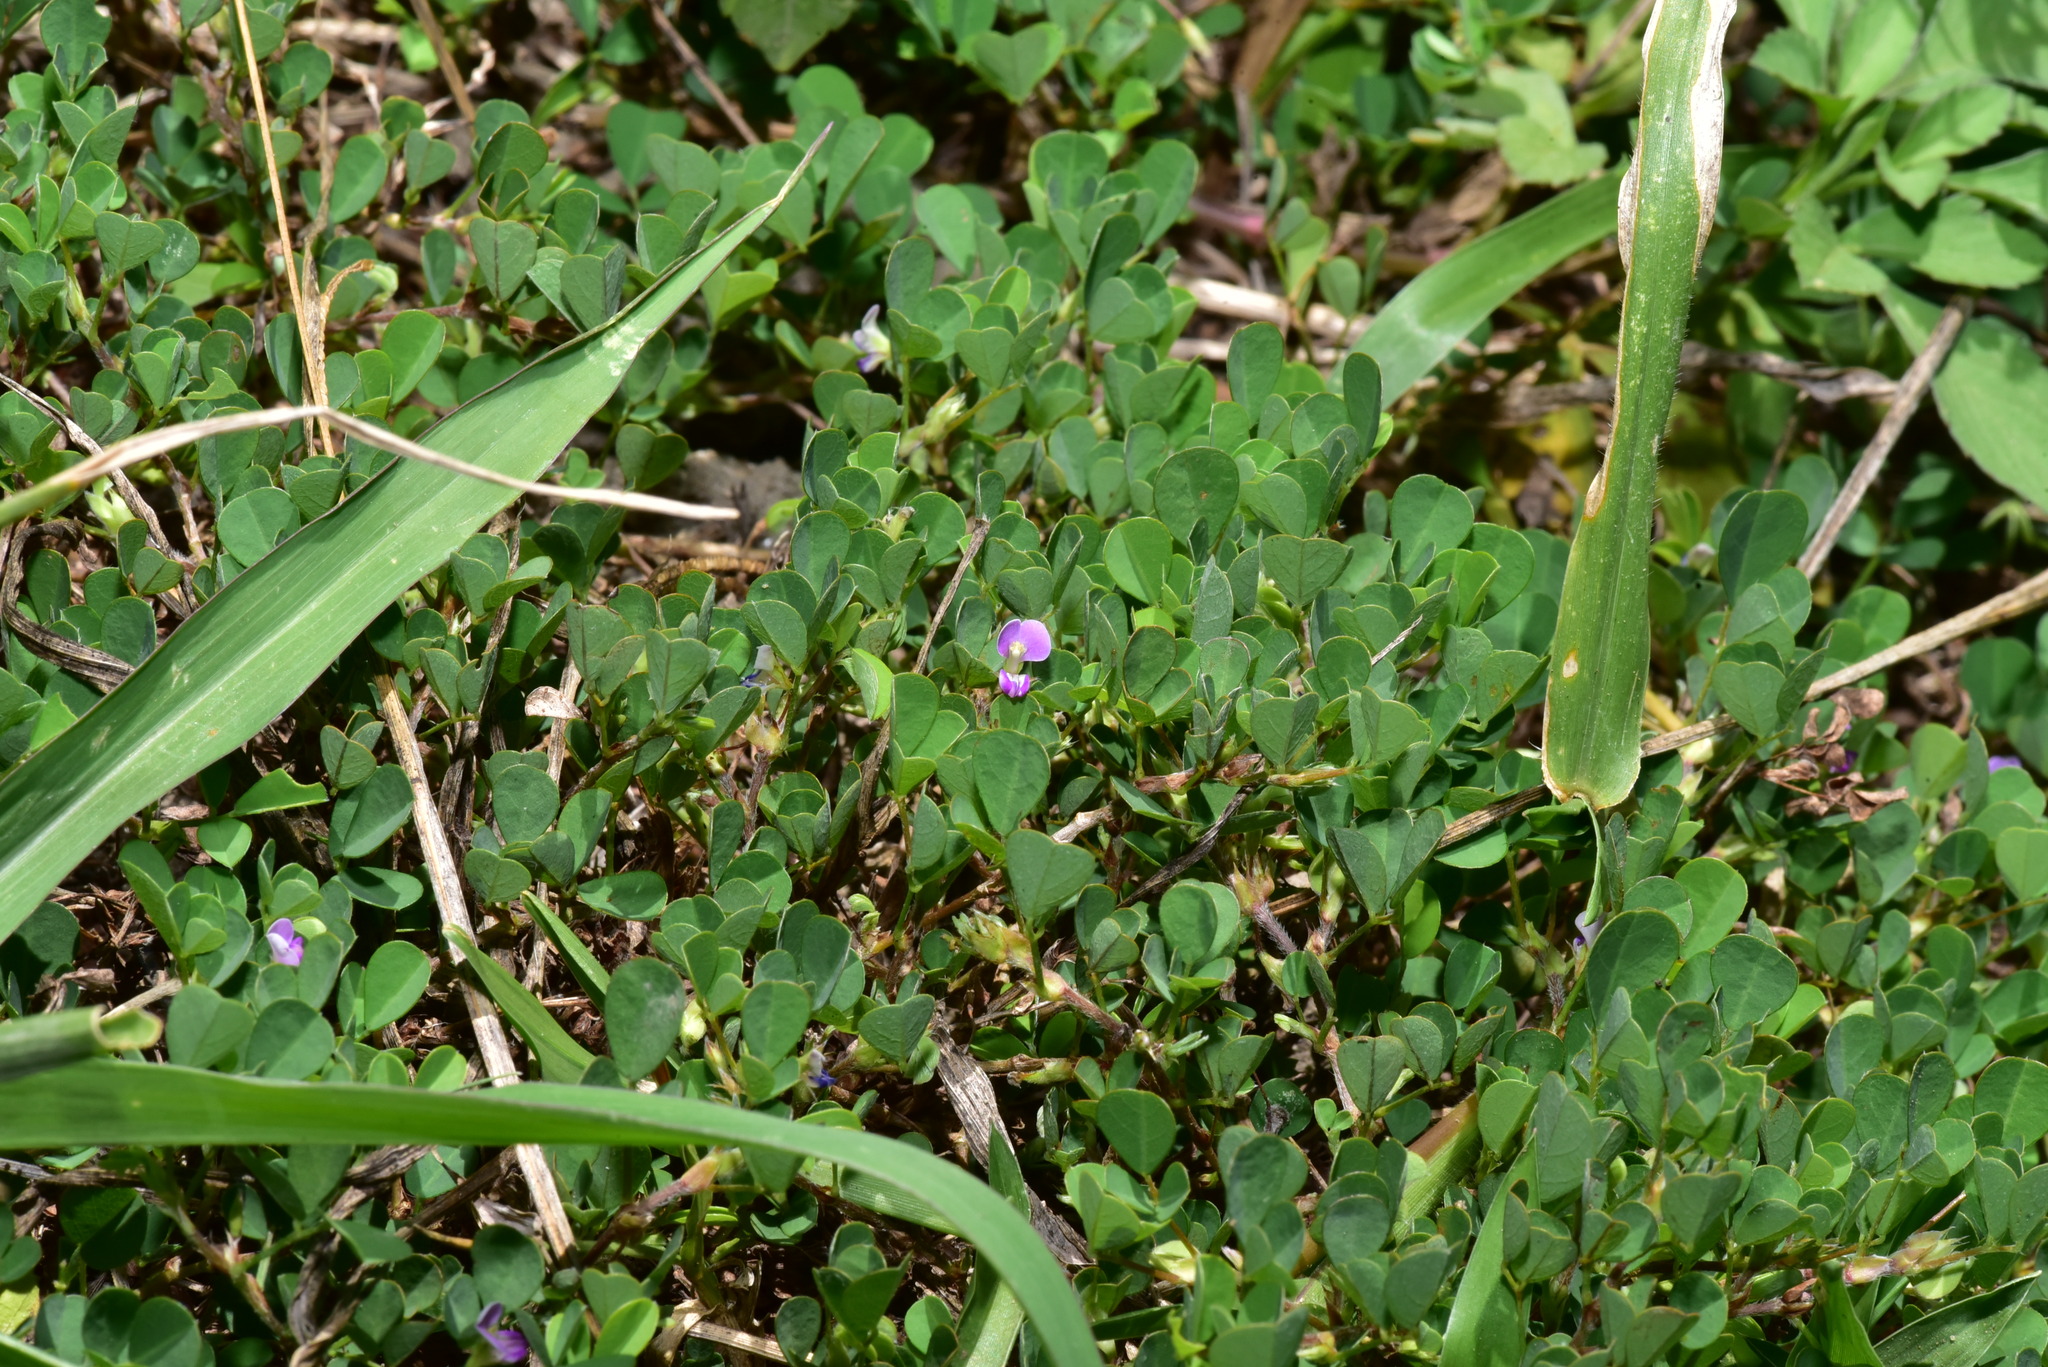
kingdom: Plantae
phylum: Tracheophyta
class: Magnoliopsida
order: Fabales
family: Fabaceae
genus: Grona
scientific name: Grona triflora
